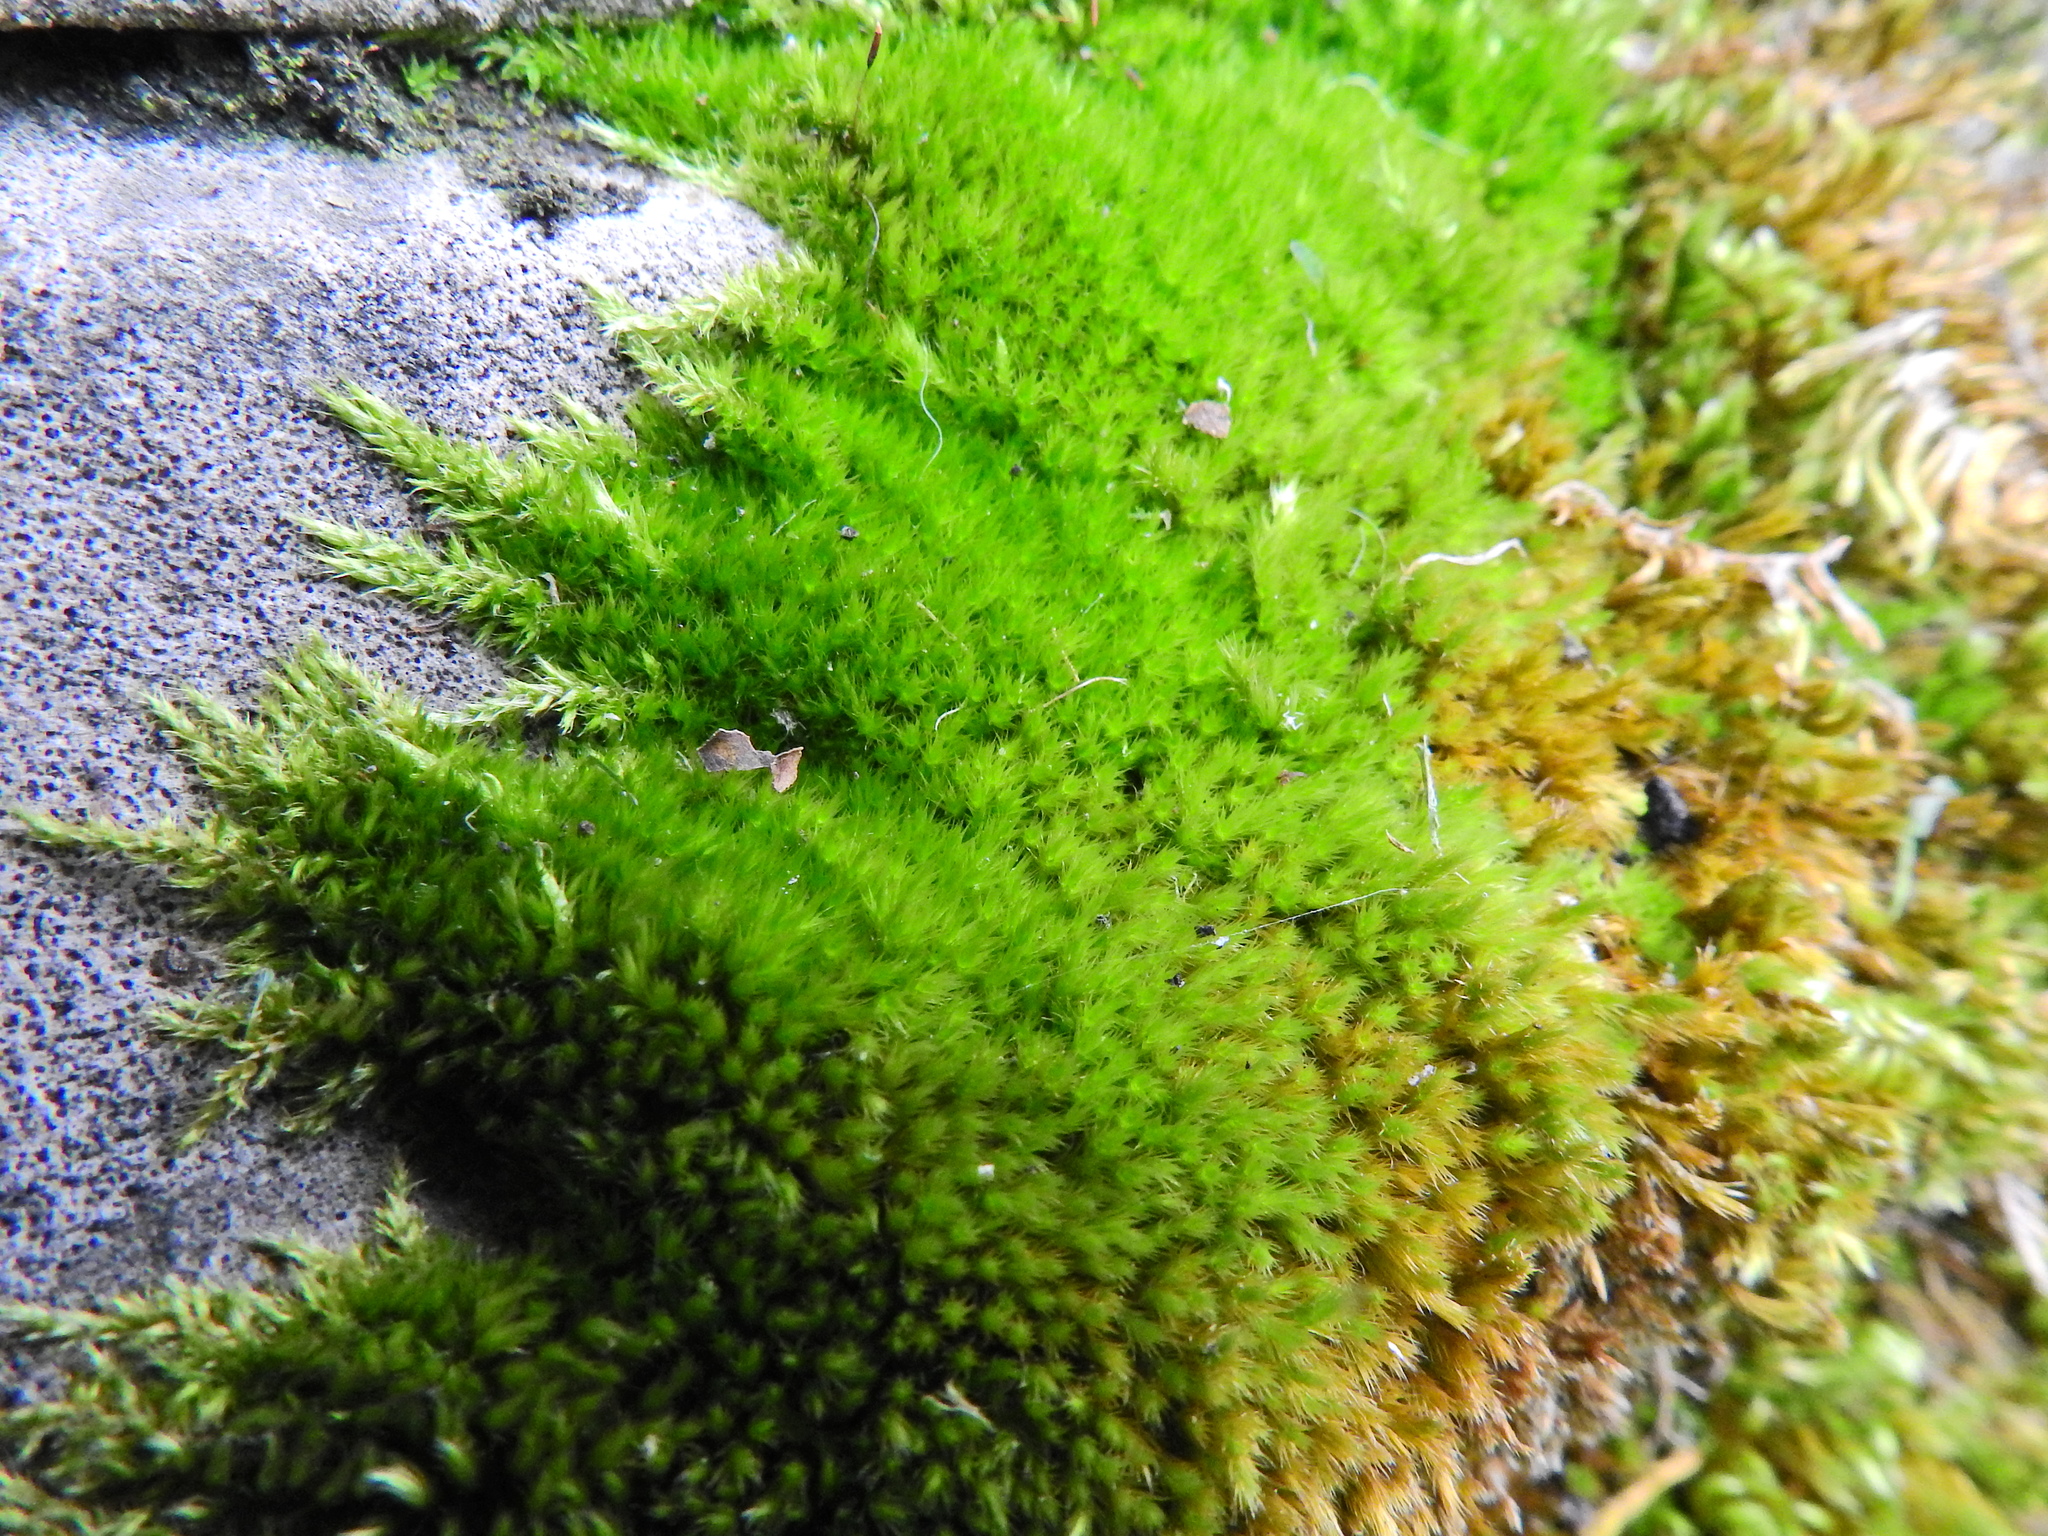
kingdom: Plantae
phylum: Bryophyta
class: Bryopsida
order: Hypnales
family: Brachytheciaceae
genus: Homalothecium
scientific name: Homalothecium sericeum
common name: Silky wall feather-moss
